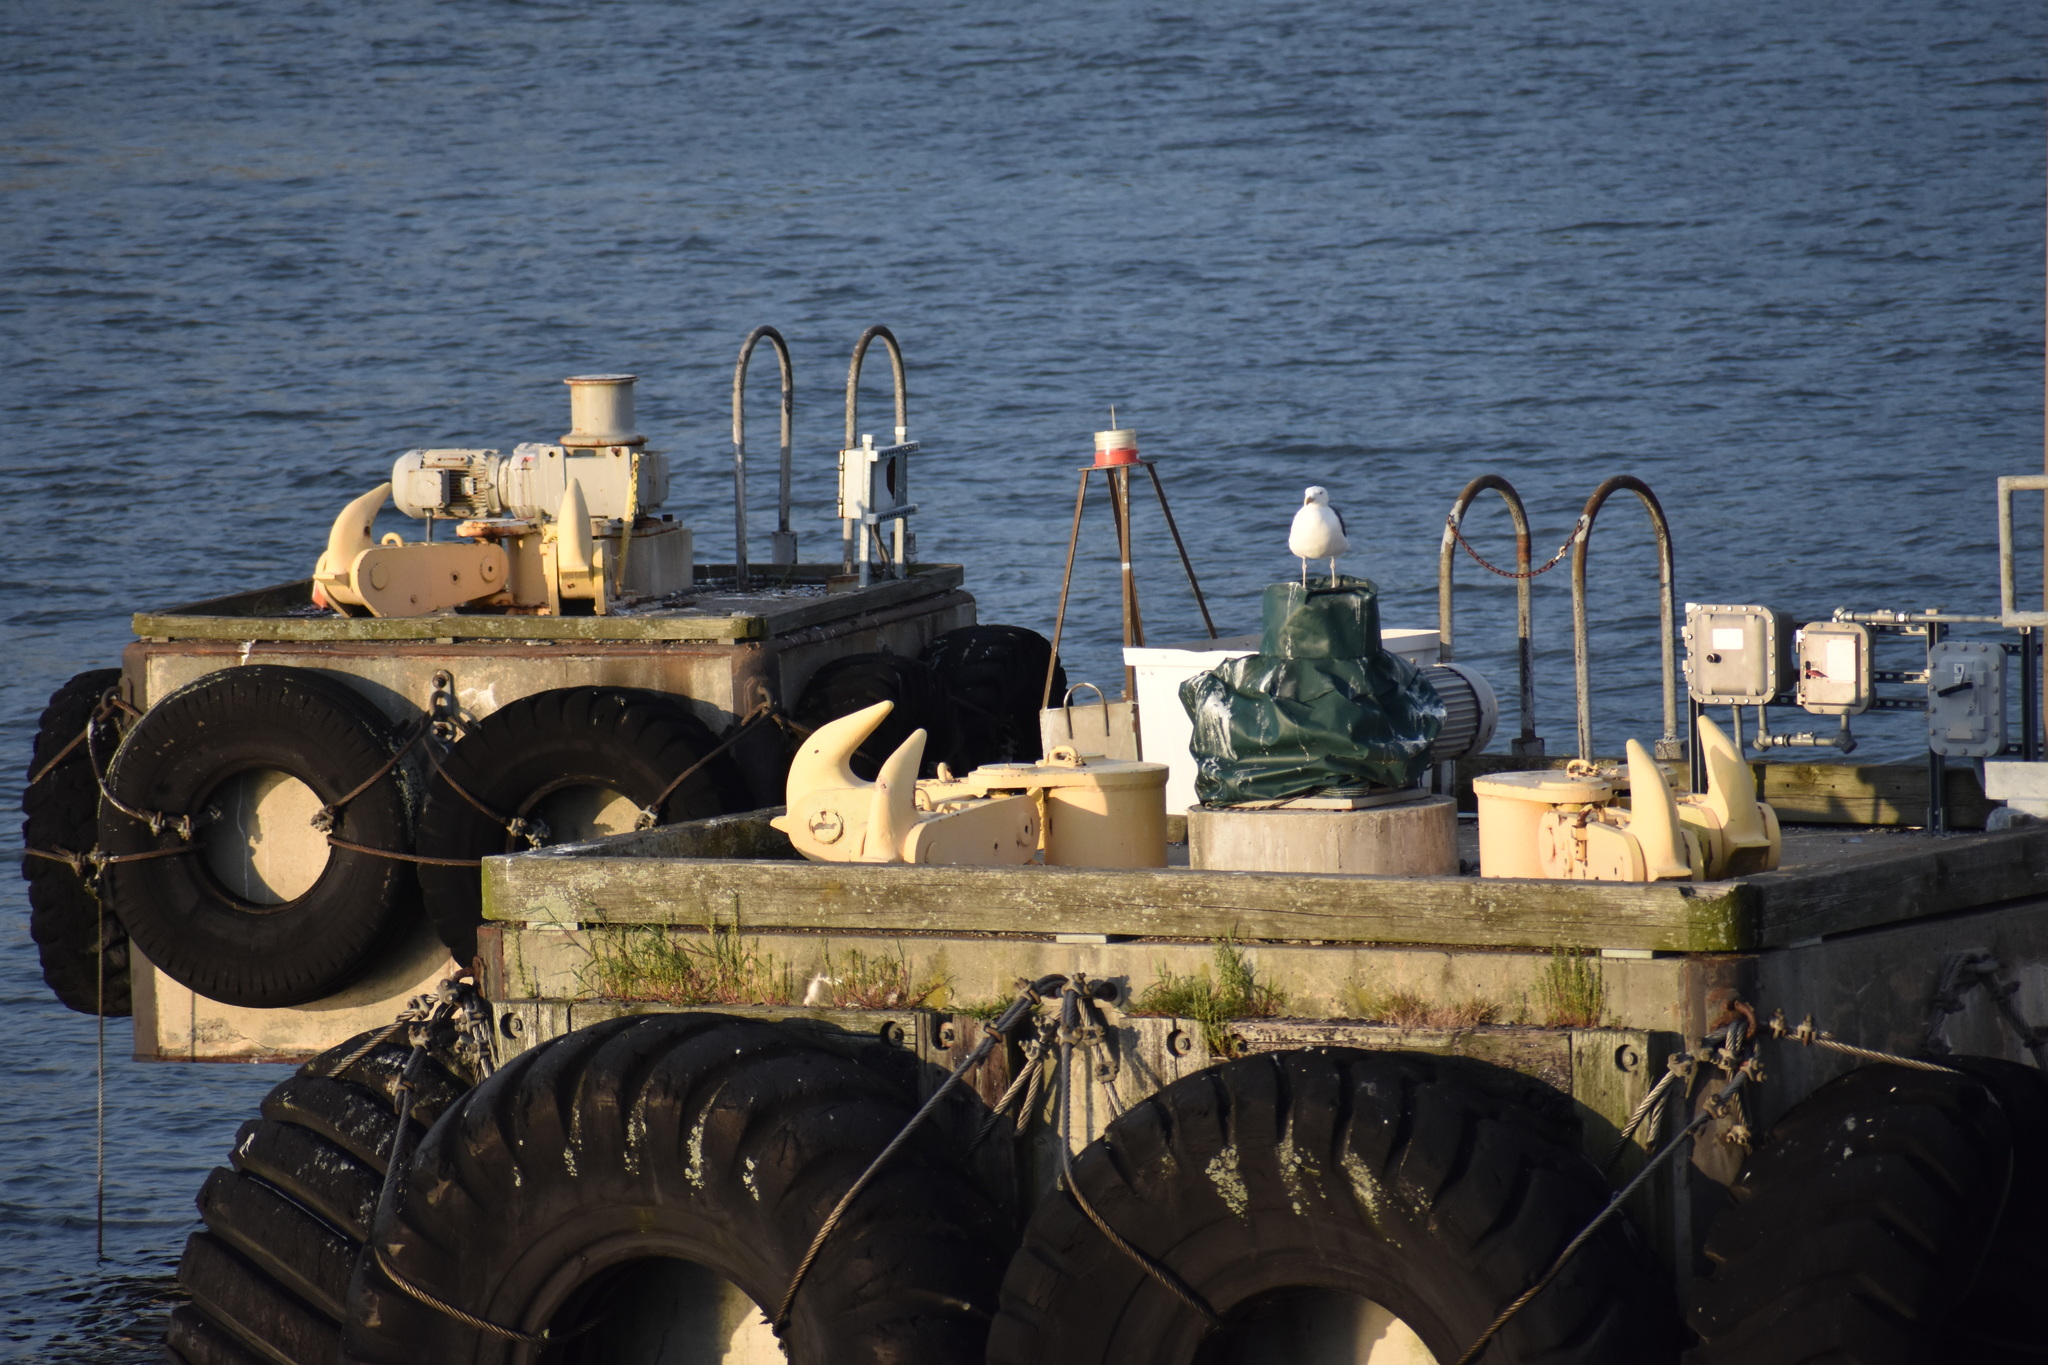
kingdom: Animalia
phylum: Chordata
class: Aves
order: Charadriiformes
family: Laridae
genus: Larus
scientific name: Larus marinus
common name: Great black-backed gull
